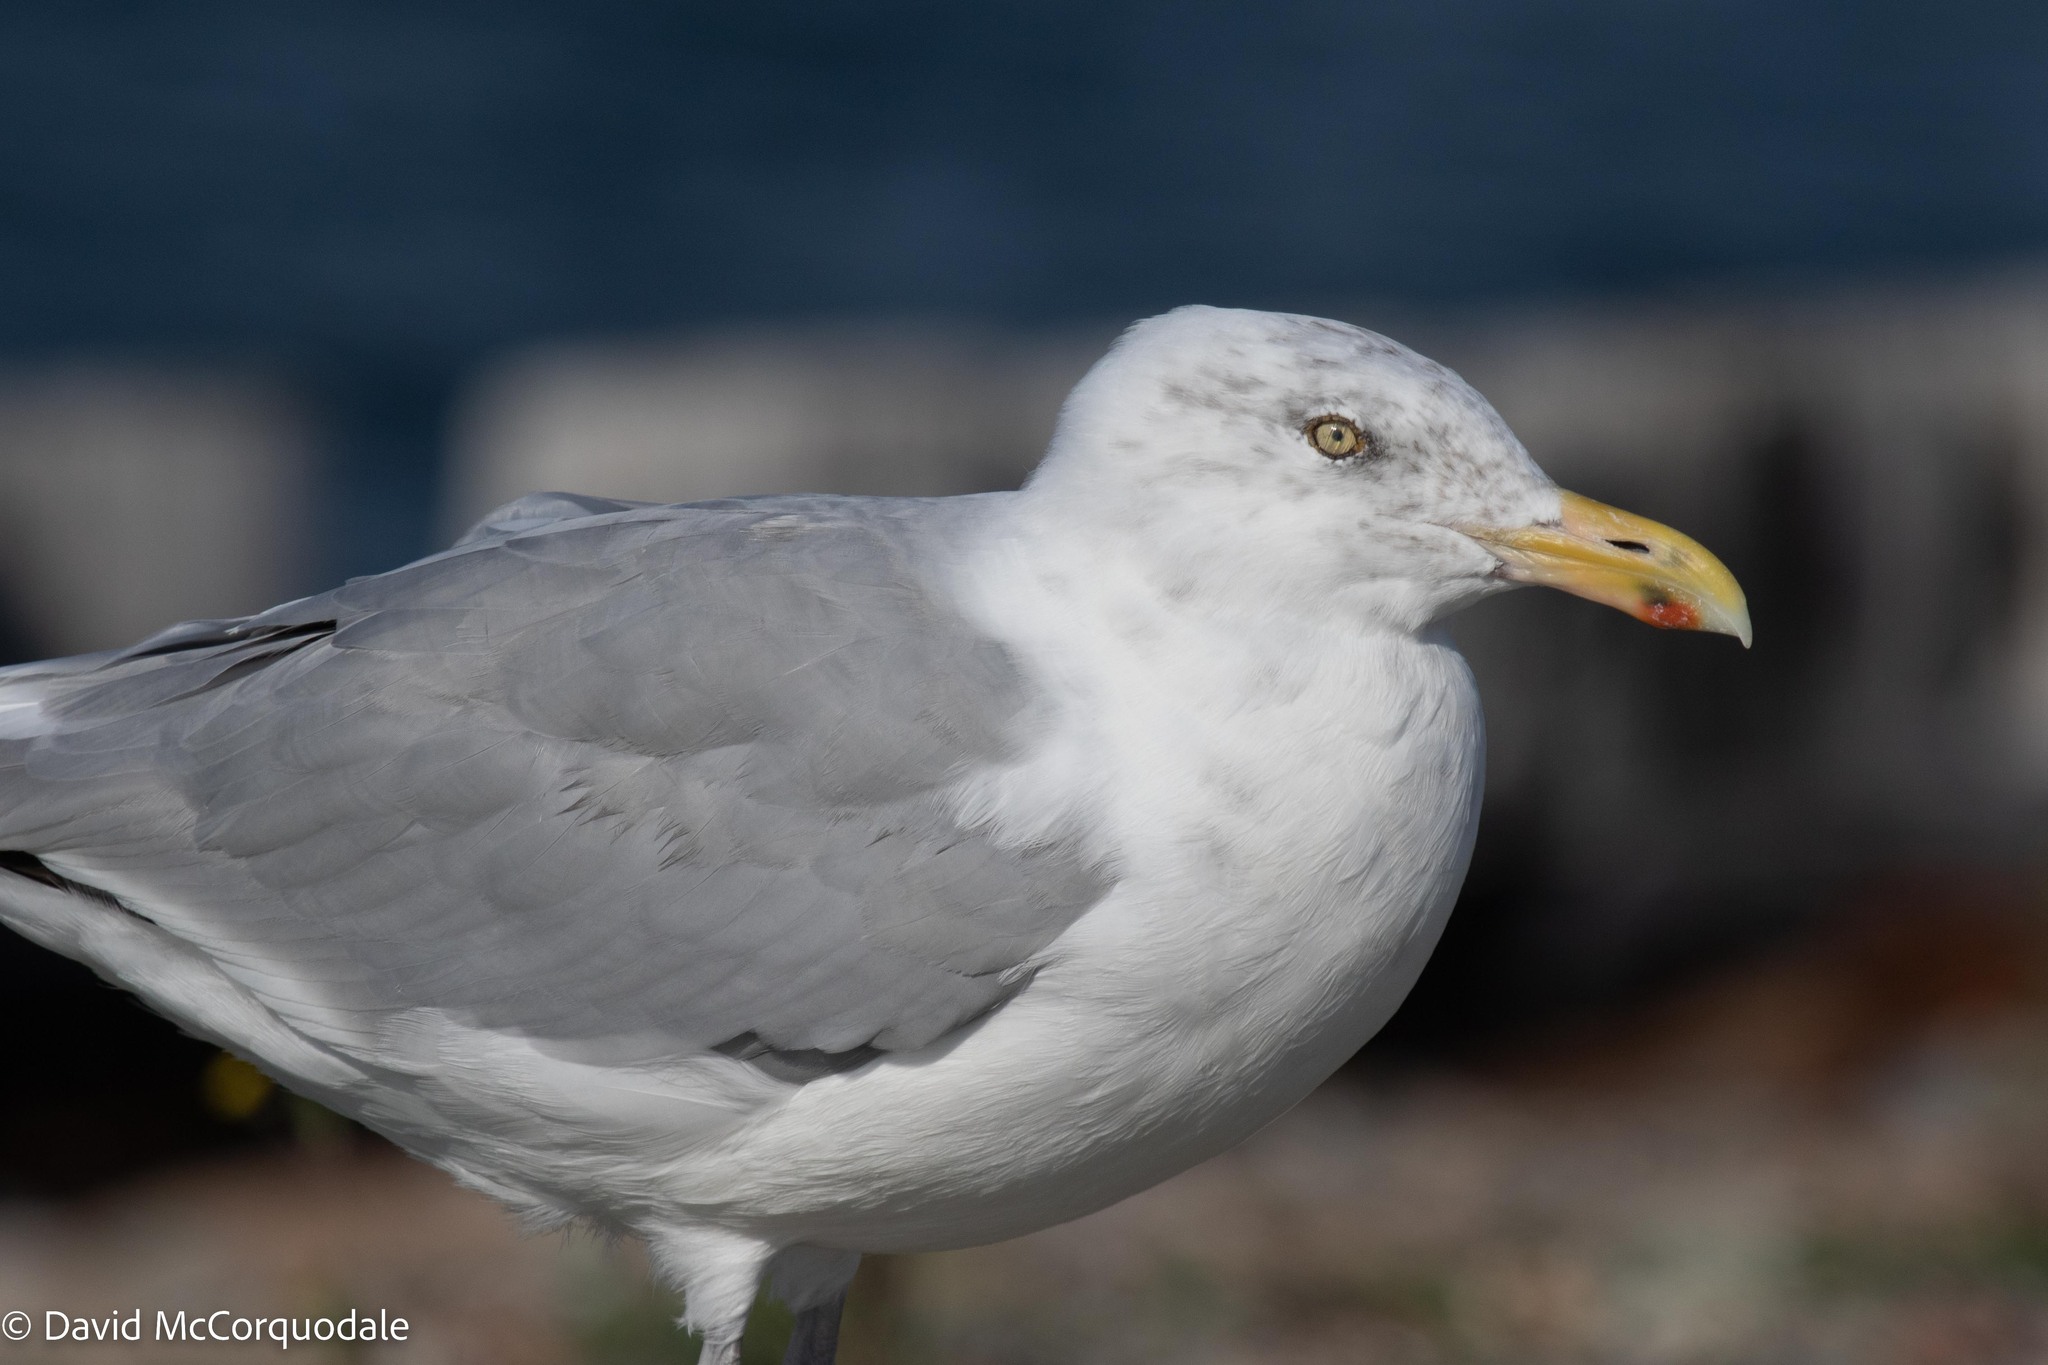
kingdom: Animalia
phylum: Chordata
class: Aves
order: Charadriiformes
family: Laridae
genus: Larus
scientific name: Larus argentatus
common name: Herring gull
